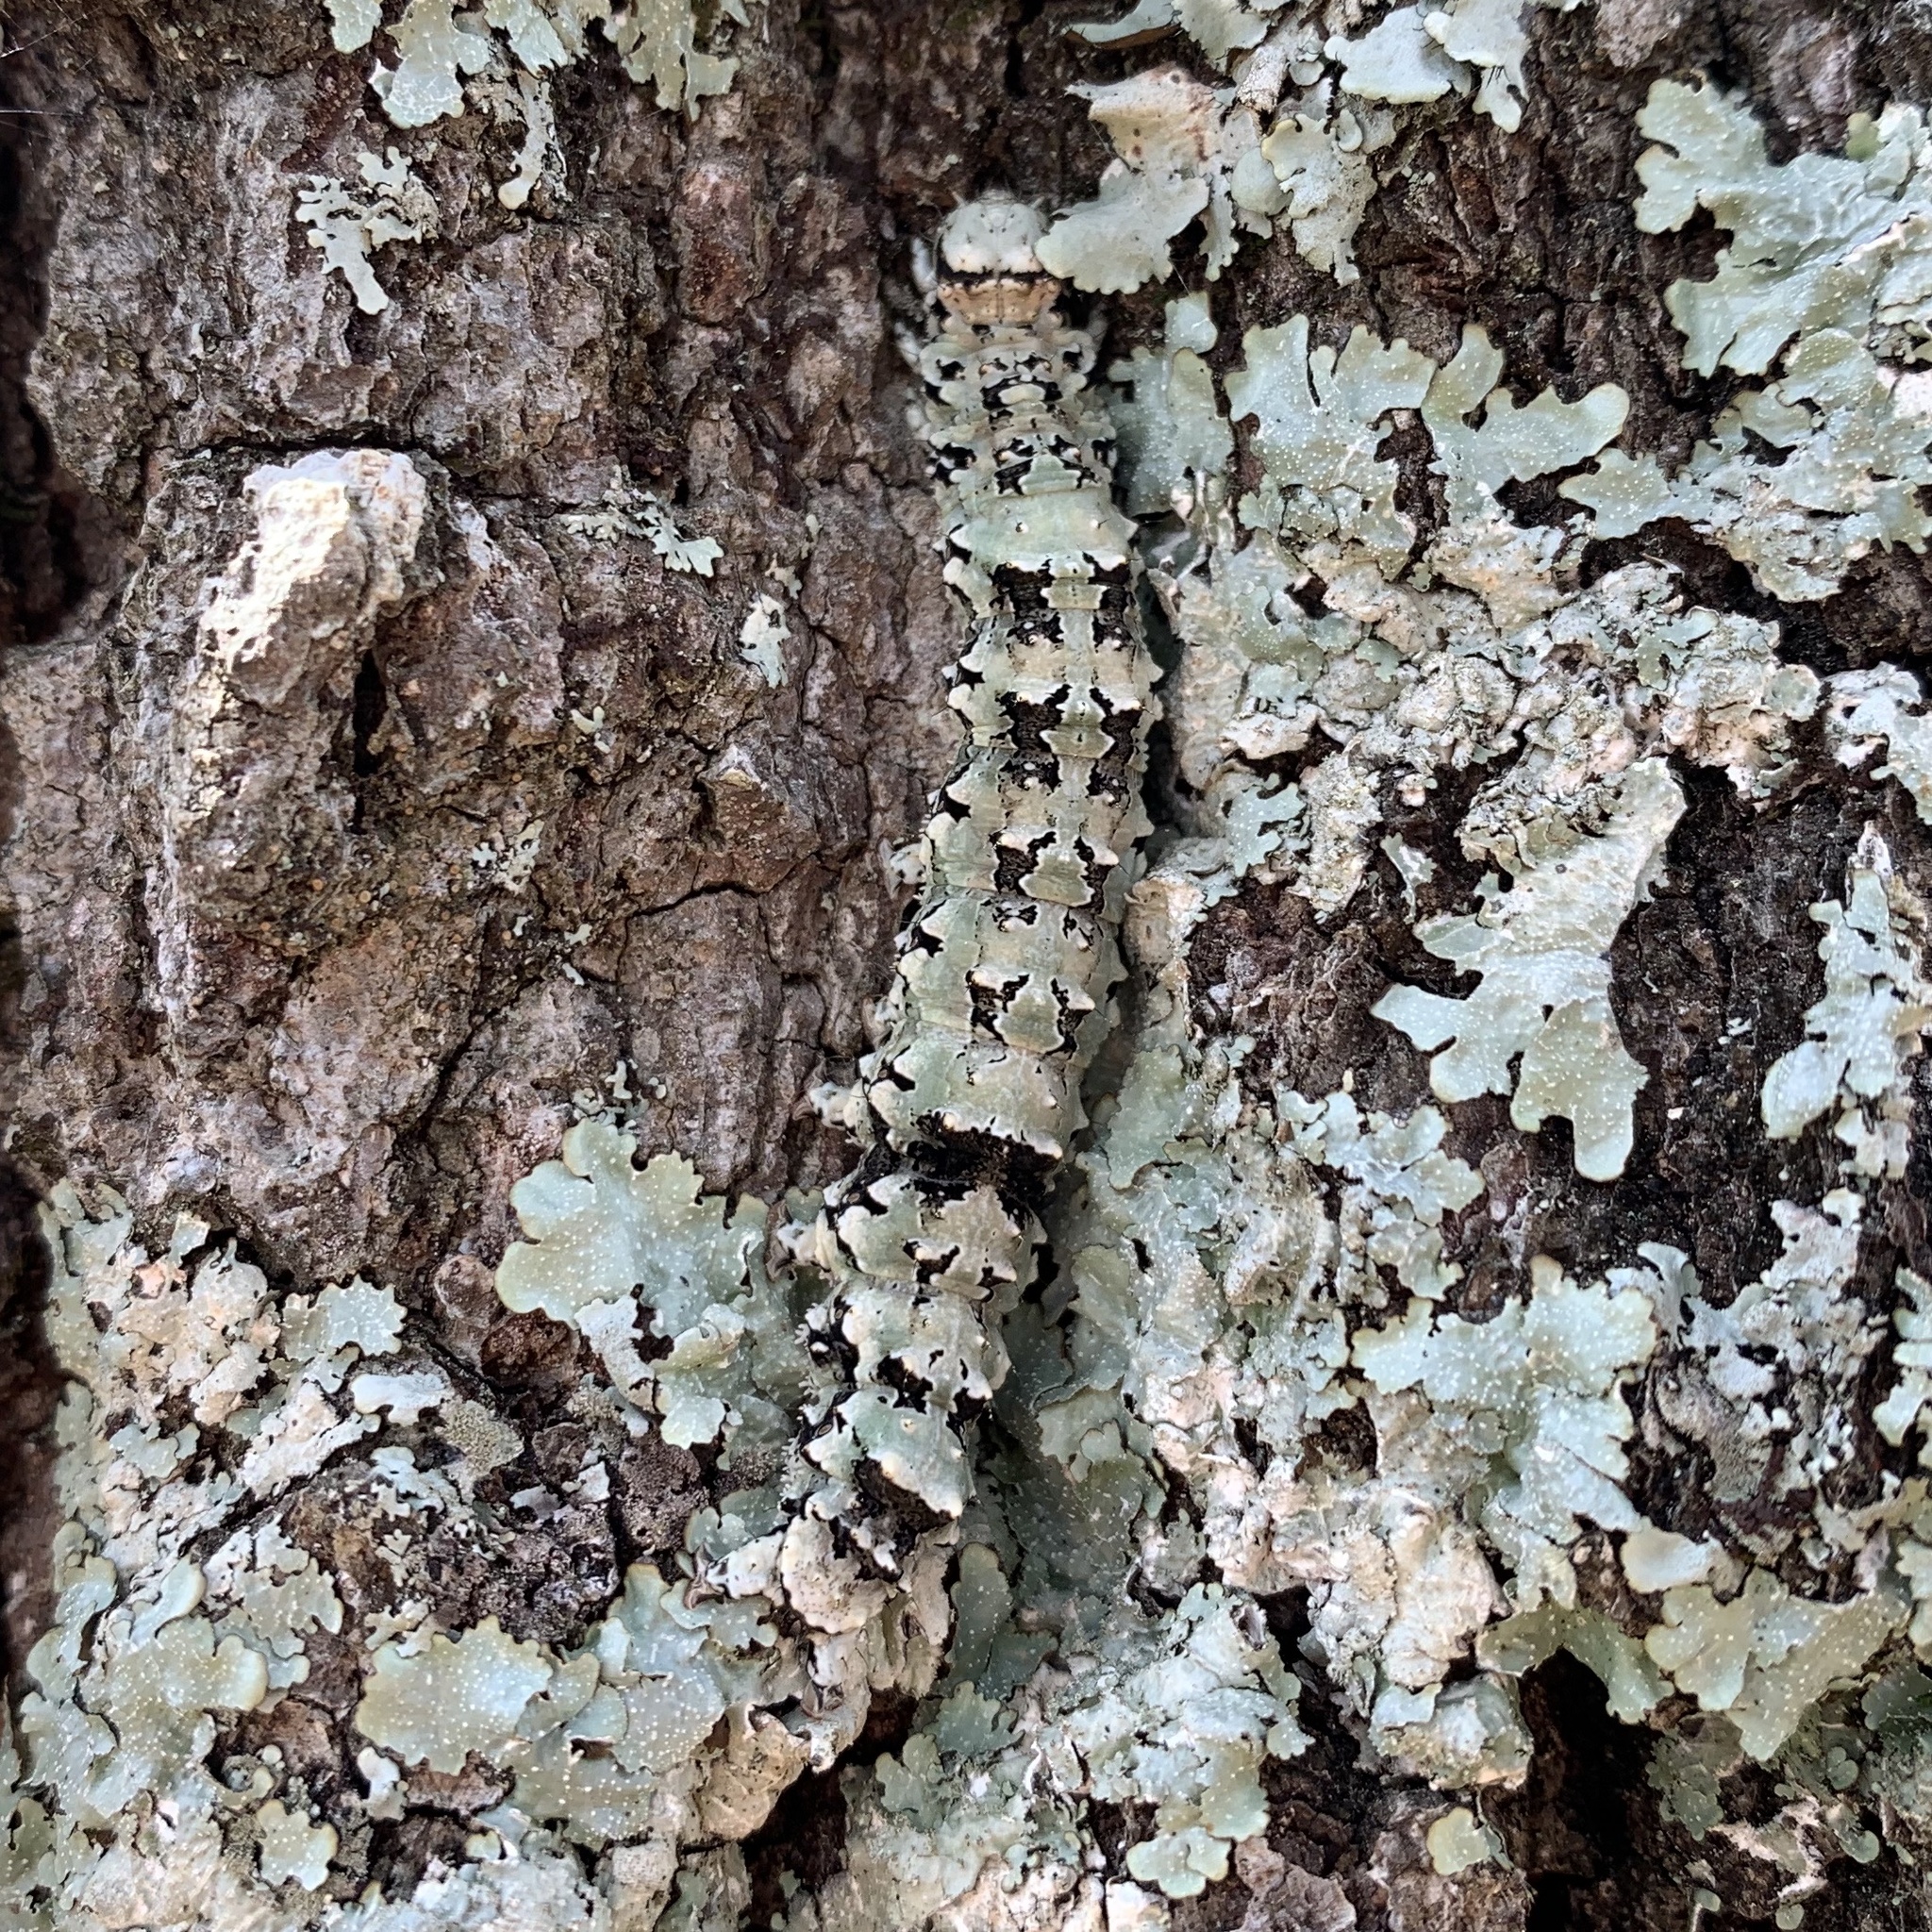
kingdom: Animalia
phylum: Arthropoda
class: Insecta
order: Lepidoptera
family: Erebidae
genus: Catocala
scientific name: Catocala ilia
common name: Ilia underwing
